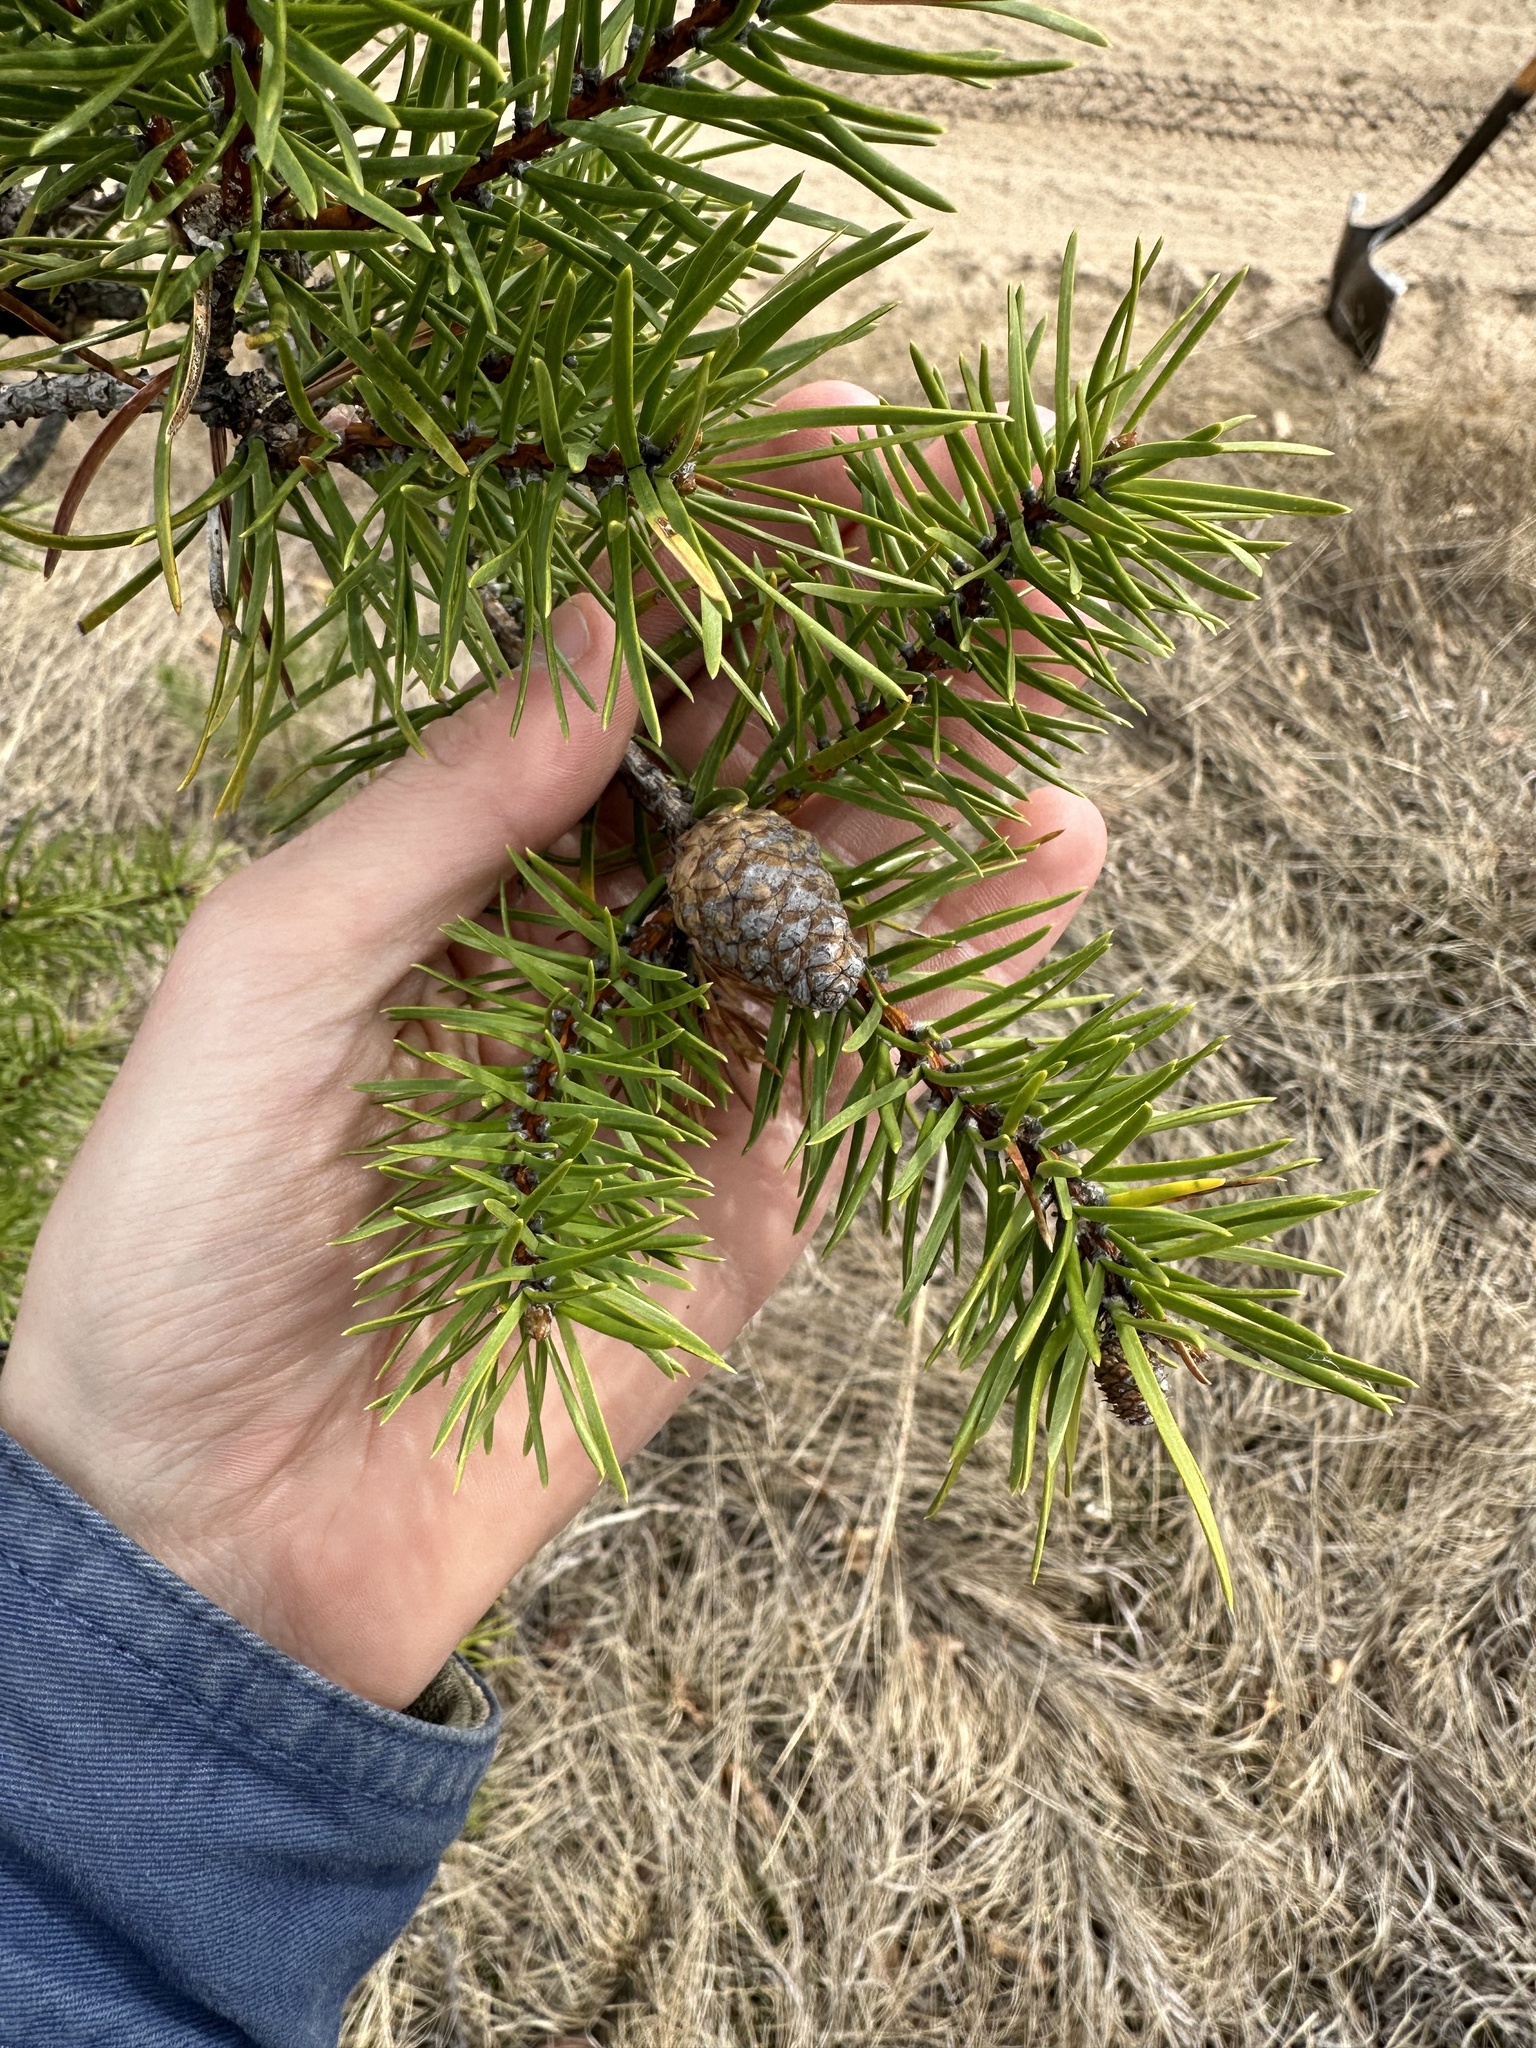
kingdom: Plantae
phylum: Tracheophyta
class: Pinopsida
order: Pinales
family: Pinaceae
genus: Pinus
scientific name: Pinus banksiana
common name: Jack pine
